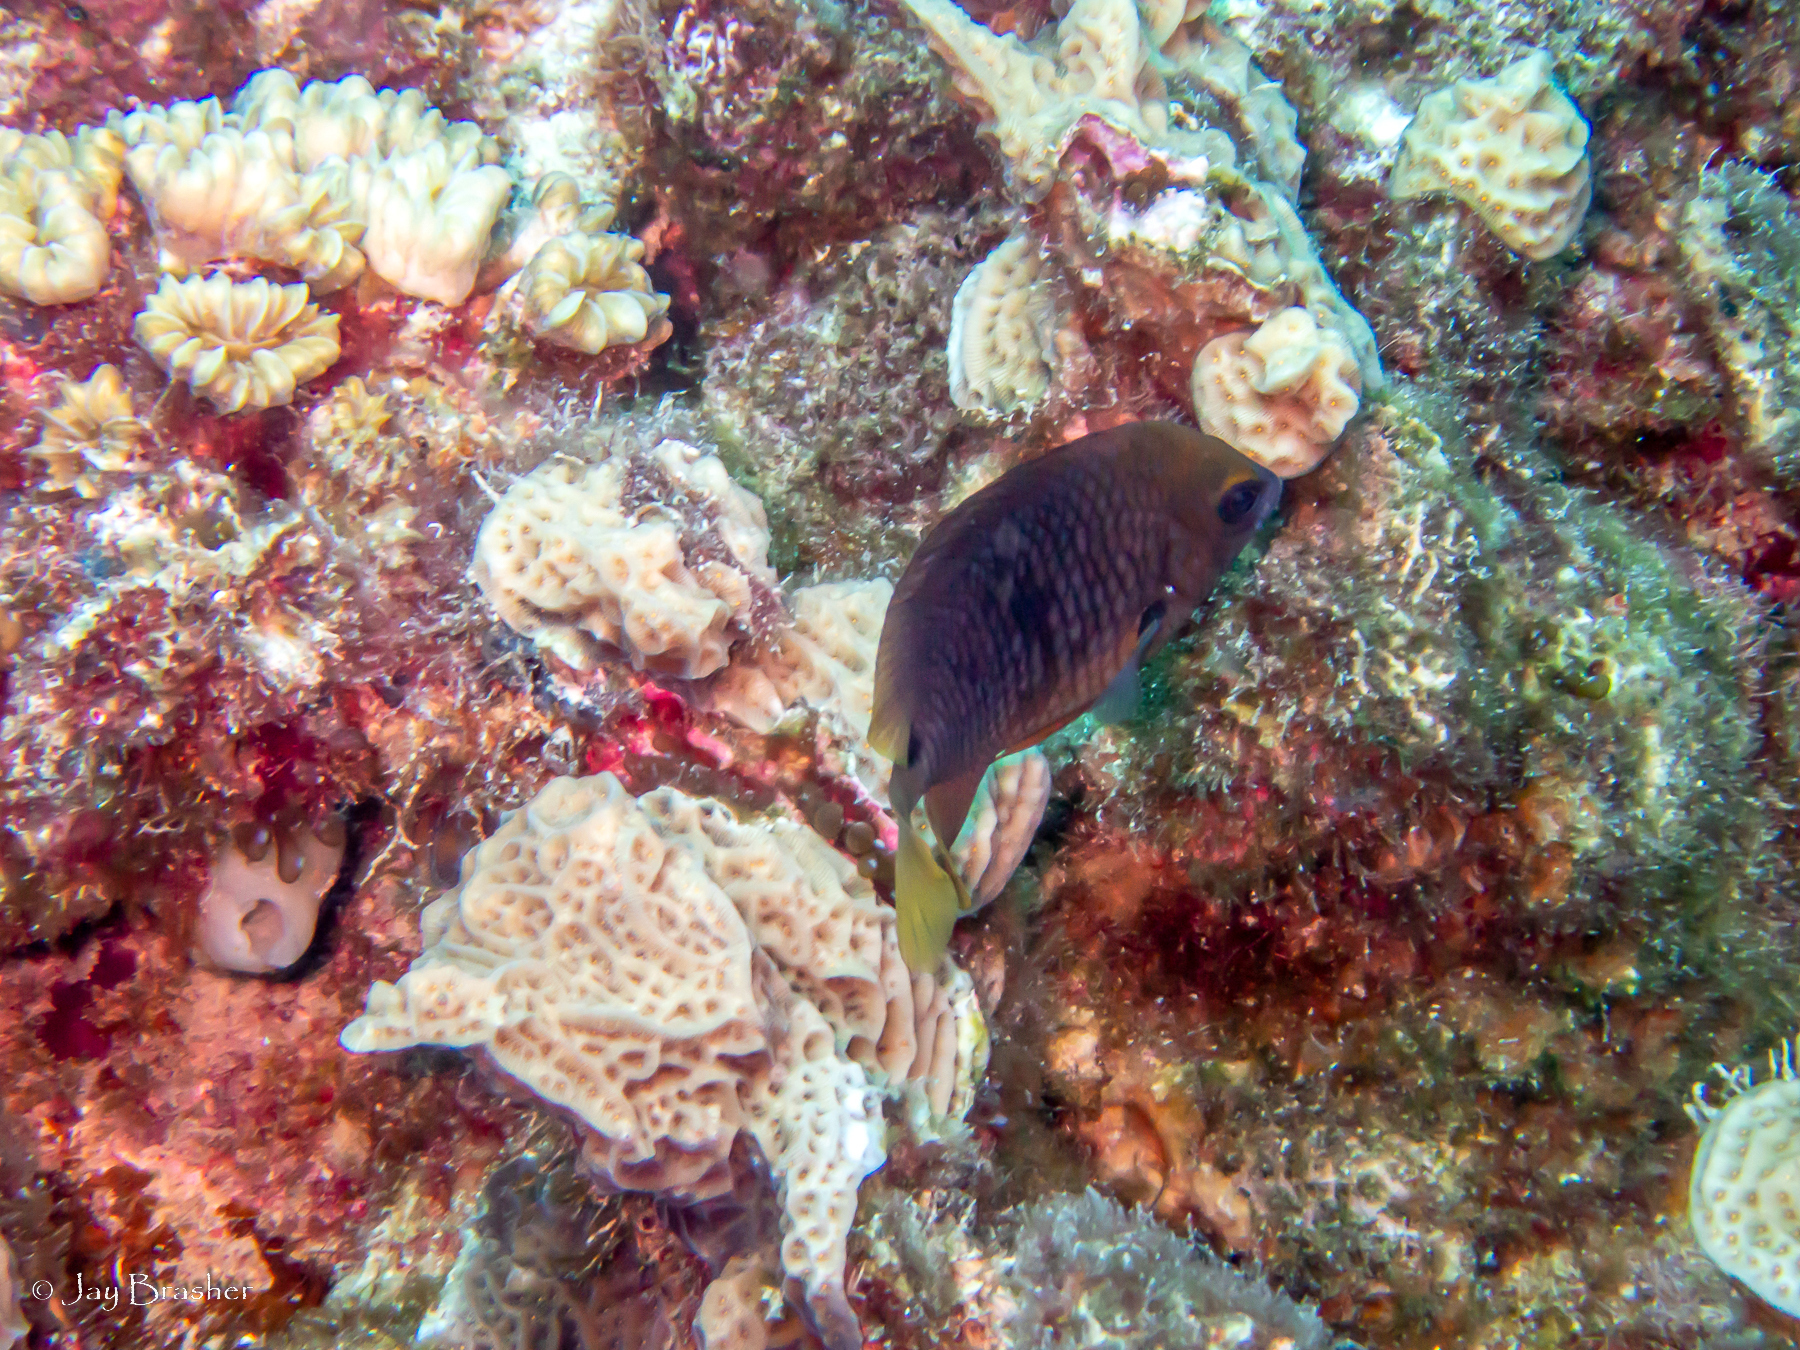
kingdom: Animalia
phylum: Chordata
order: Perciformes
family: Pomacentridae
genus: Stegastes
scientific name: Stegastes planifrons
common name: Threespot damselfish
